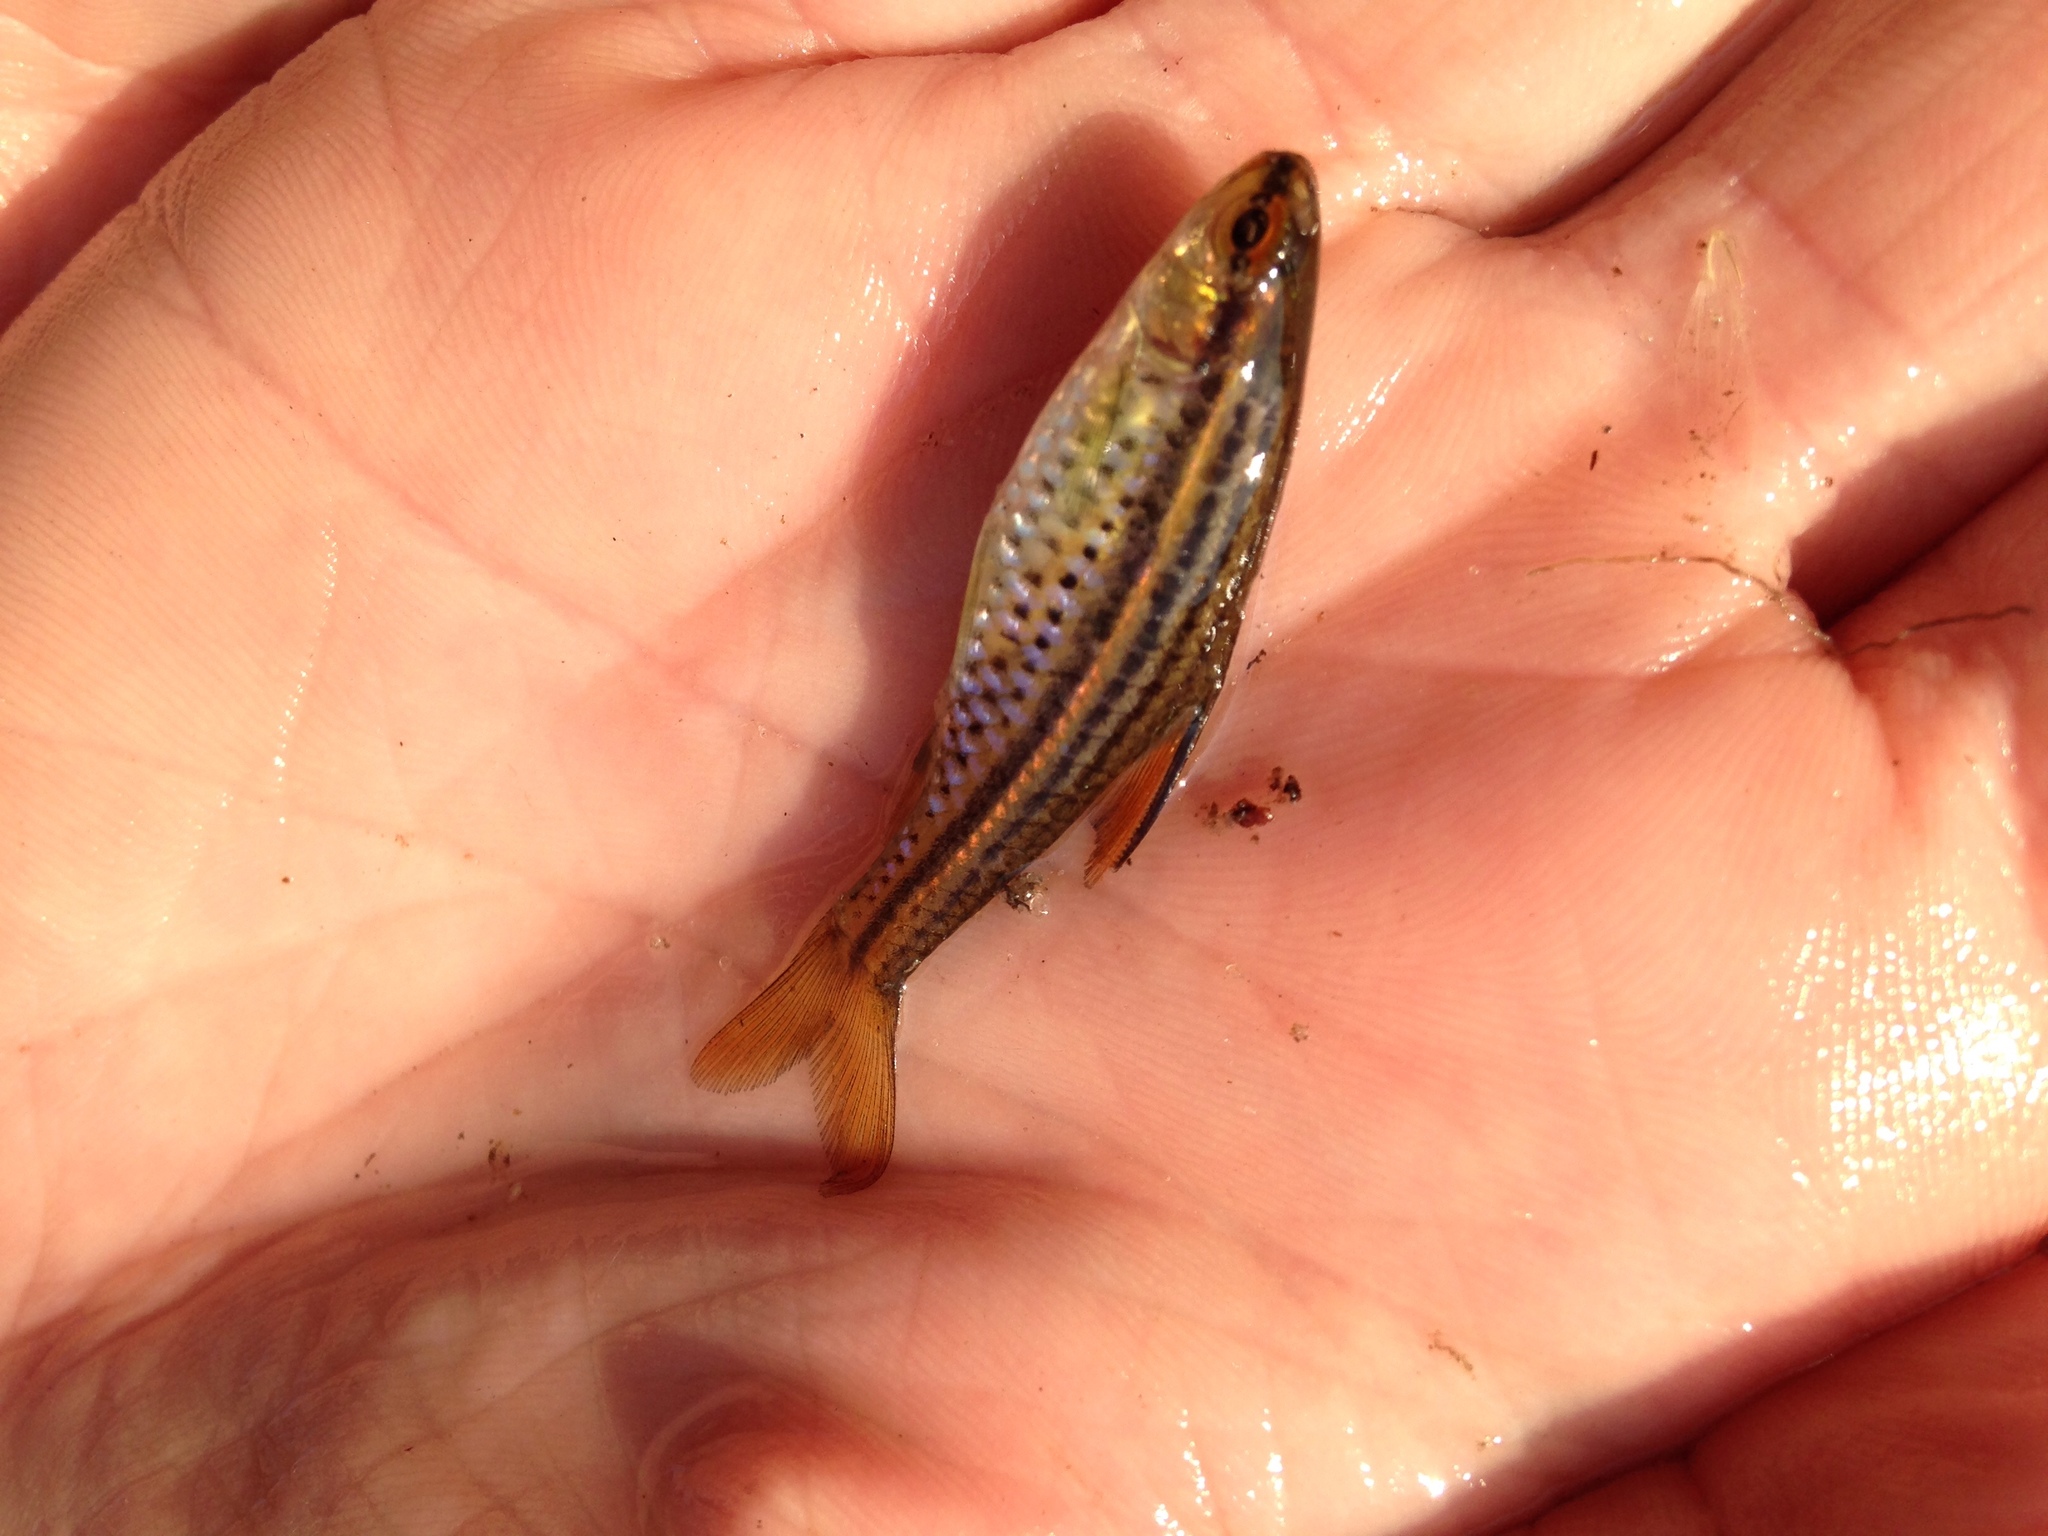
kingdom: Animalia
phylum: Chordata
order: Cypriniformes
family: Cyprinidae
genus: Enteromius
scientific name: Enteromius multilineatus
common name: Copperstripe barb
